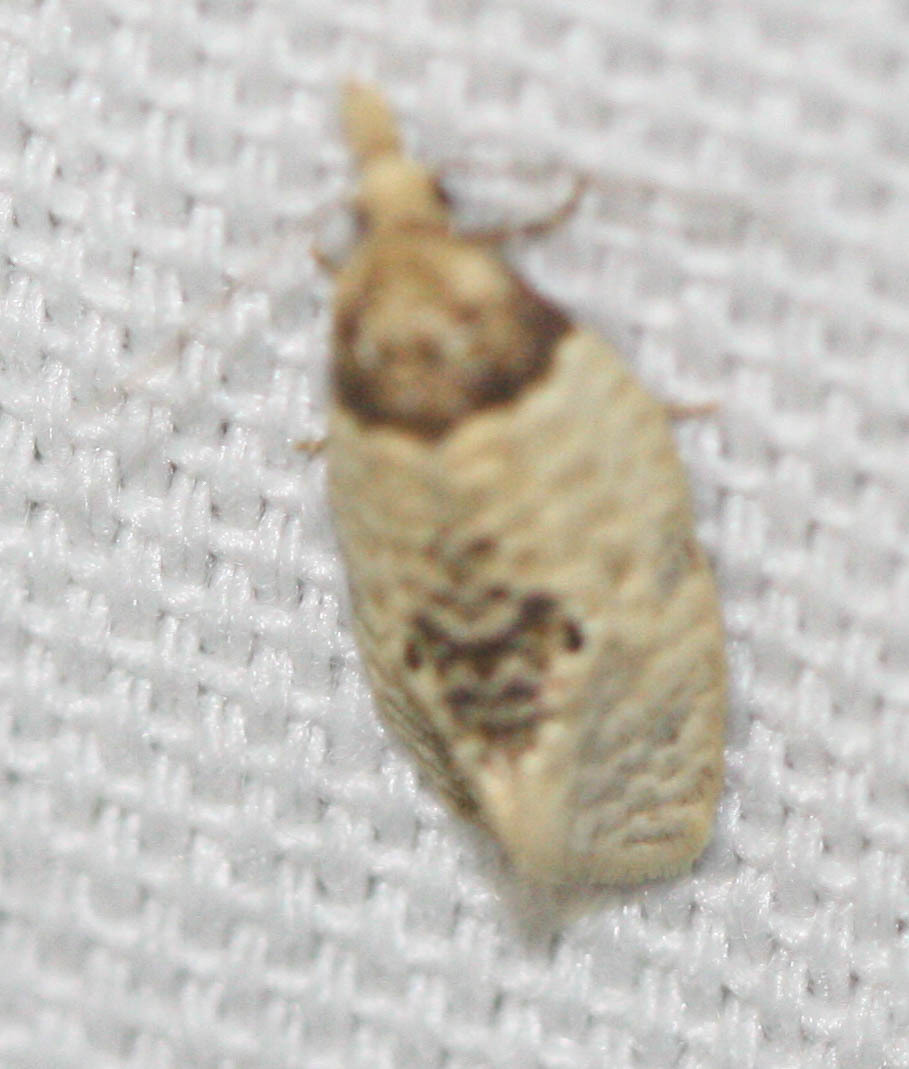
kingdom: Animalia
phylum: Arthropoda
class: Insecta
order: Lepidoptera
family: Tortricidae
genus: Henricus
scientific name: Henricus umbrabasana
